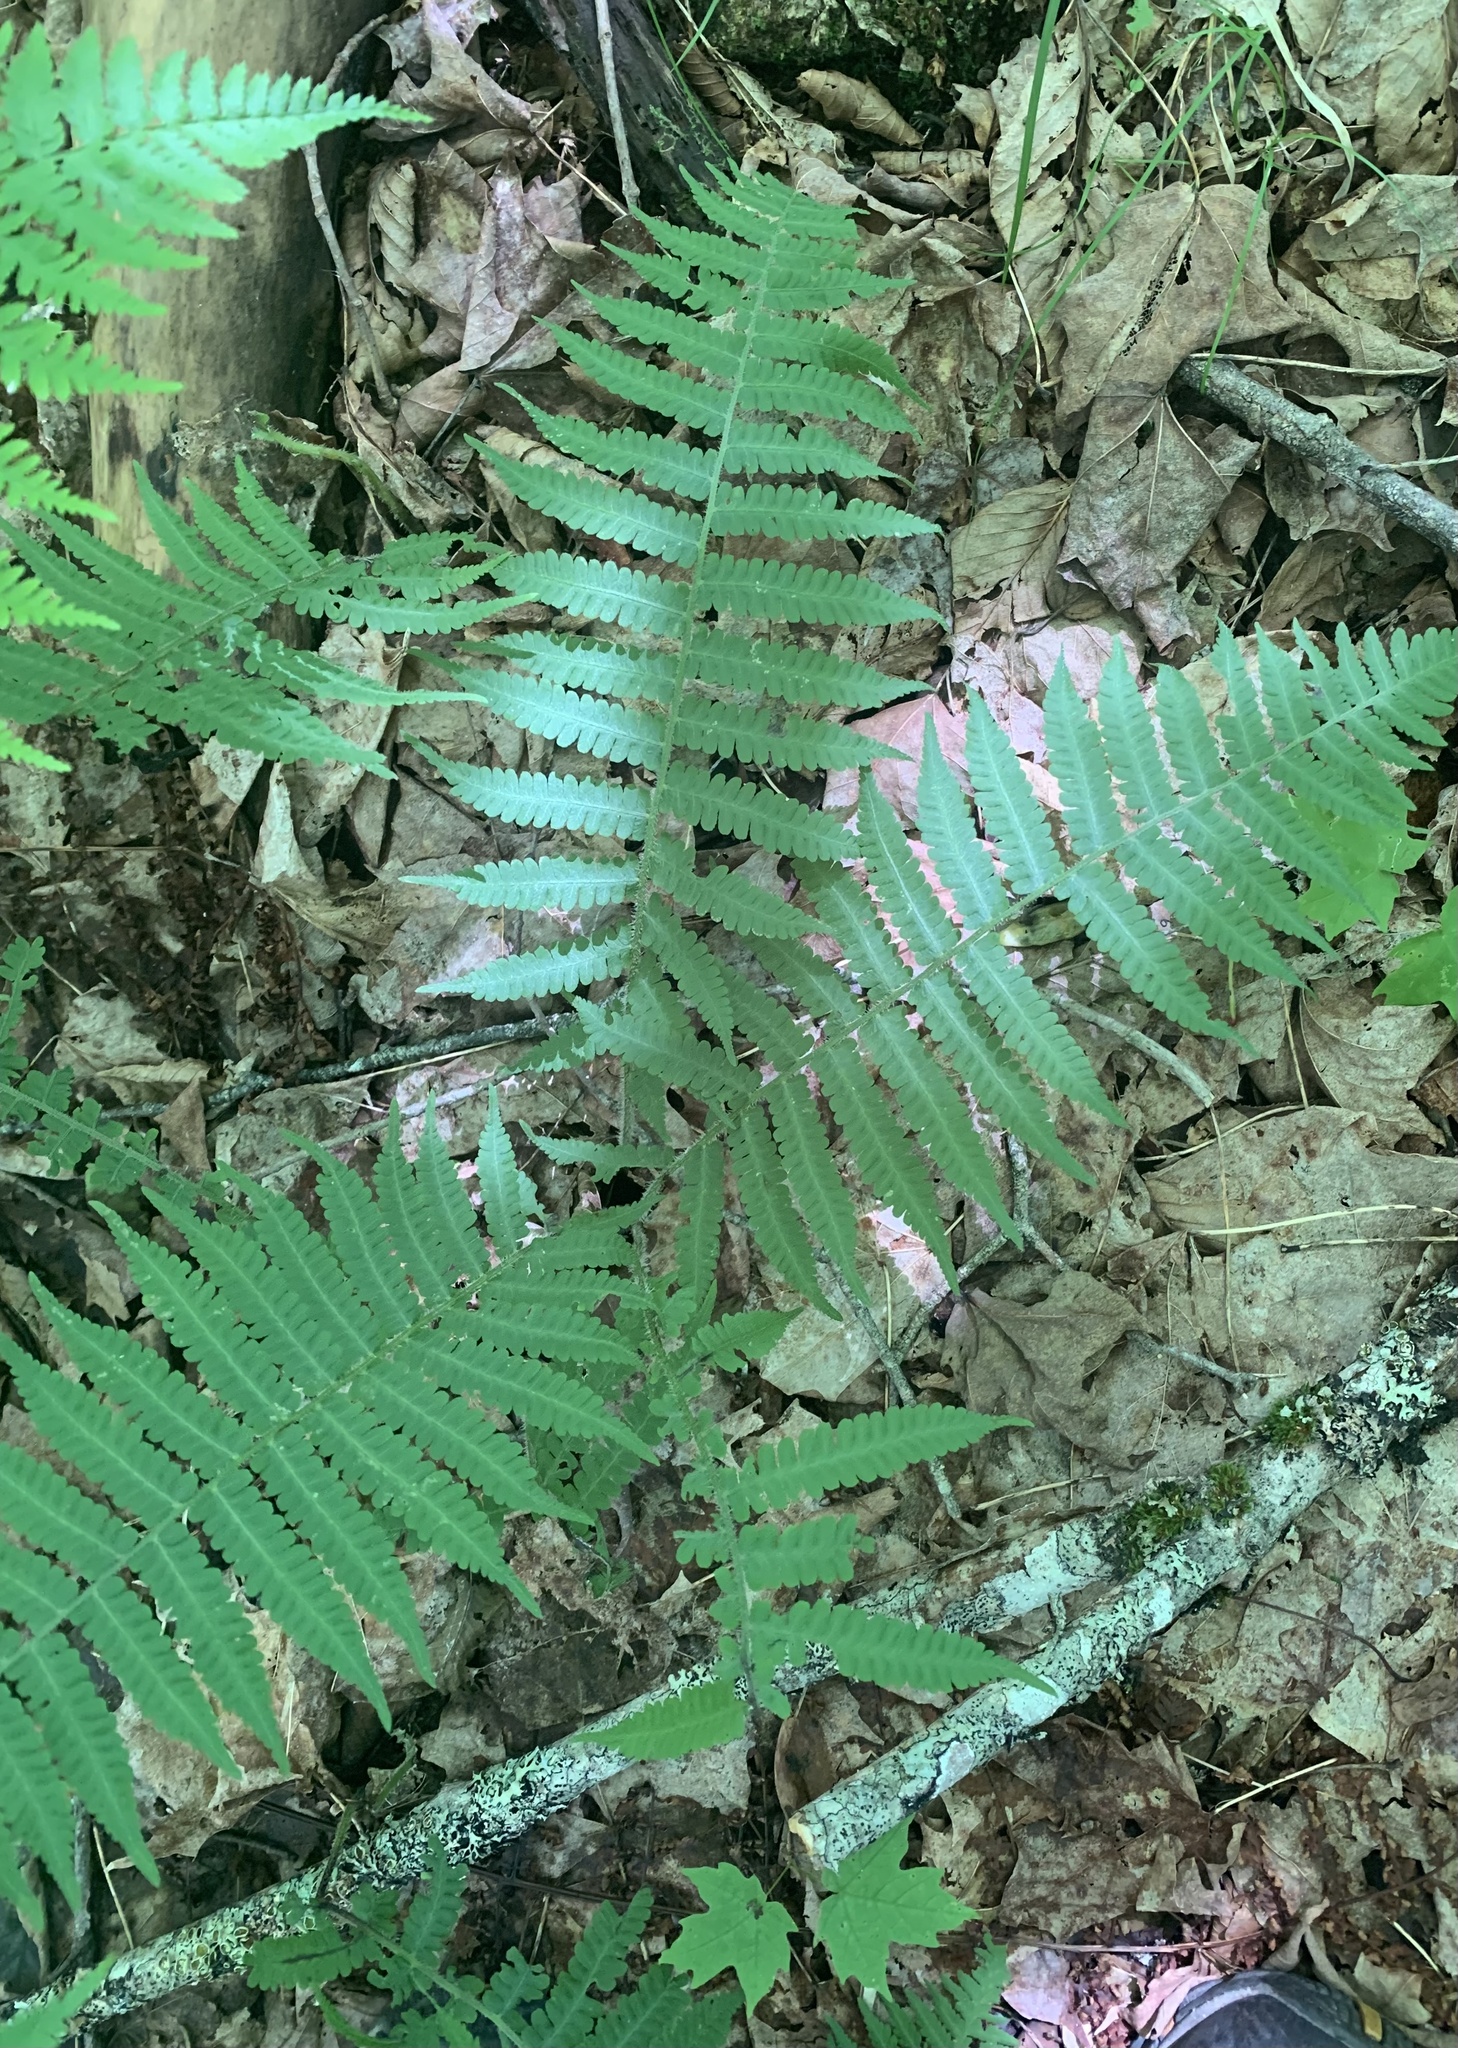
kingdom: Plantae
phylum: Tracheophyta
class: Polypodiopsida
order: Polypodiales
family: Athyriaceae
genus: Deparia
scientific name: Deparia acrostichoides
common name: Silver false spleenwort
